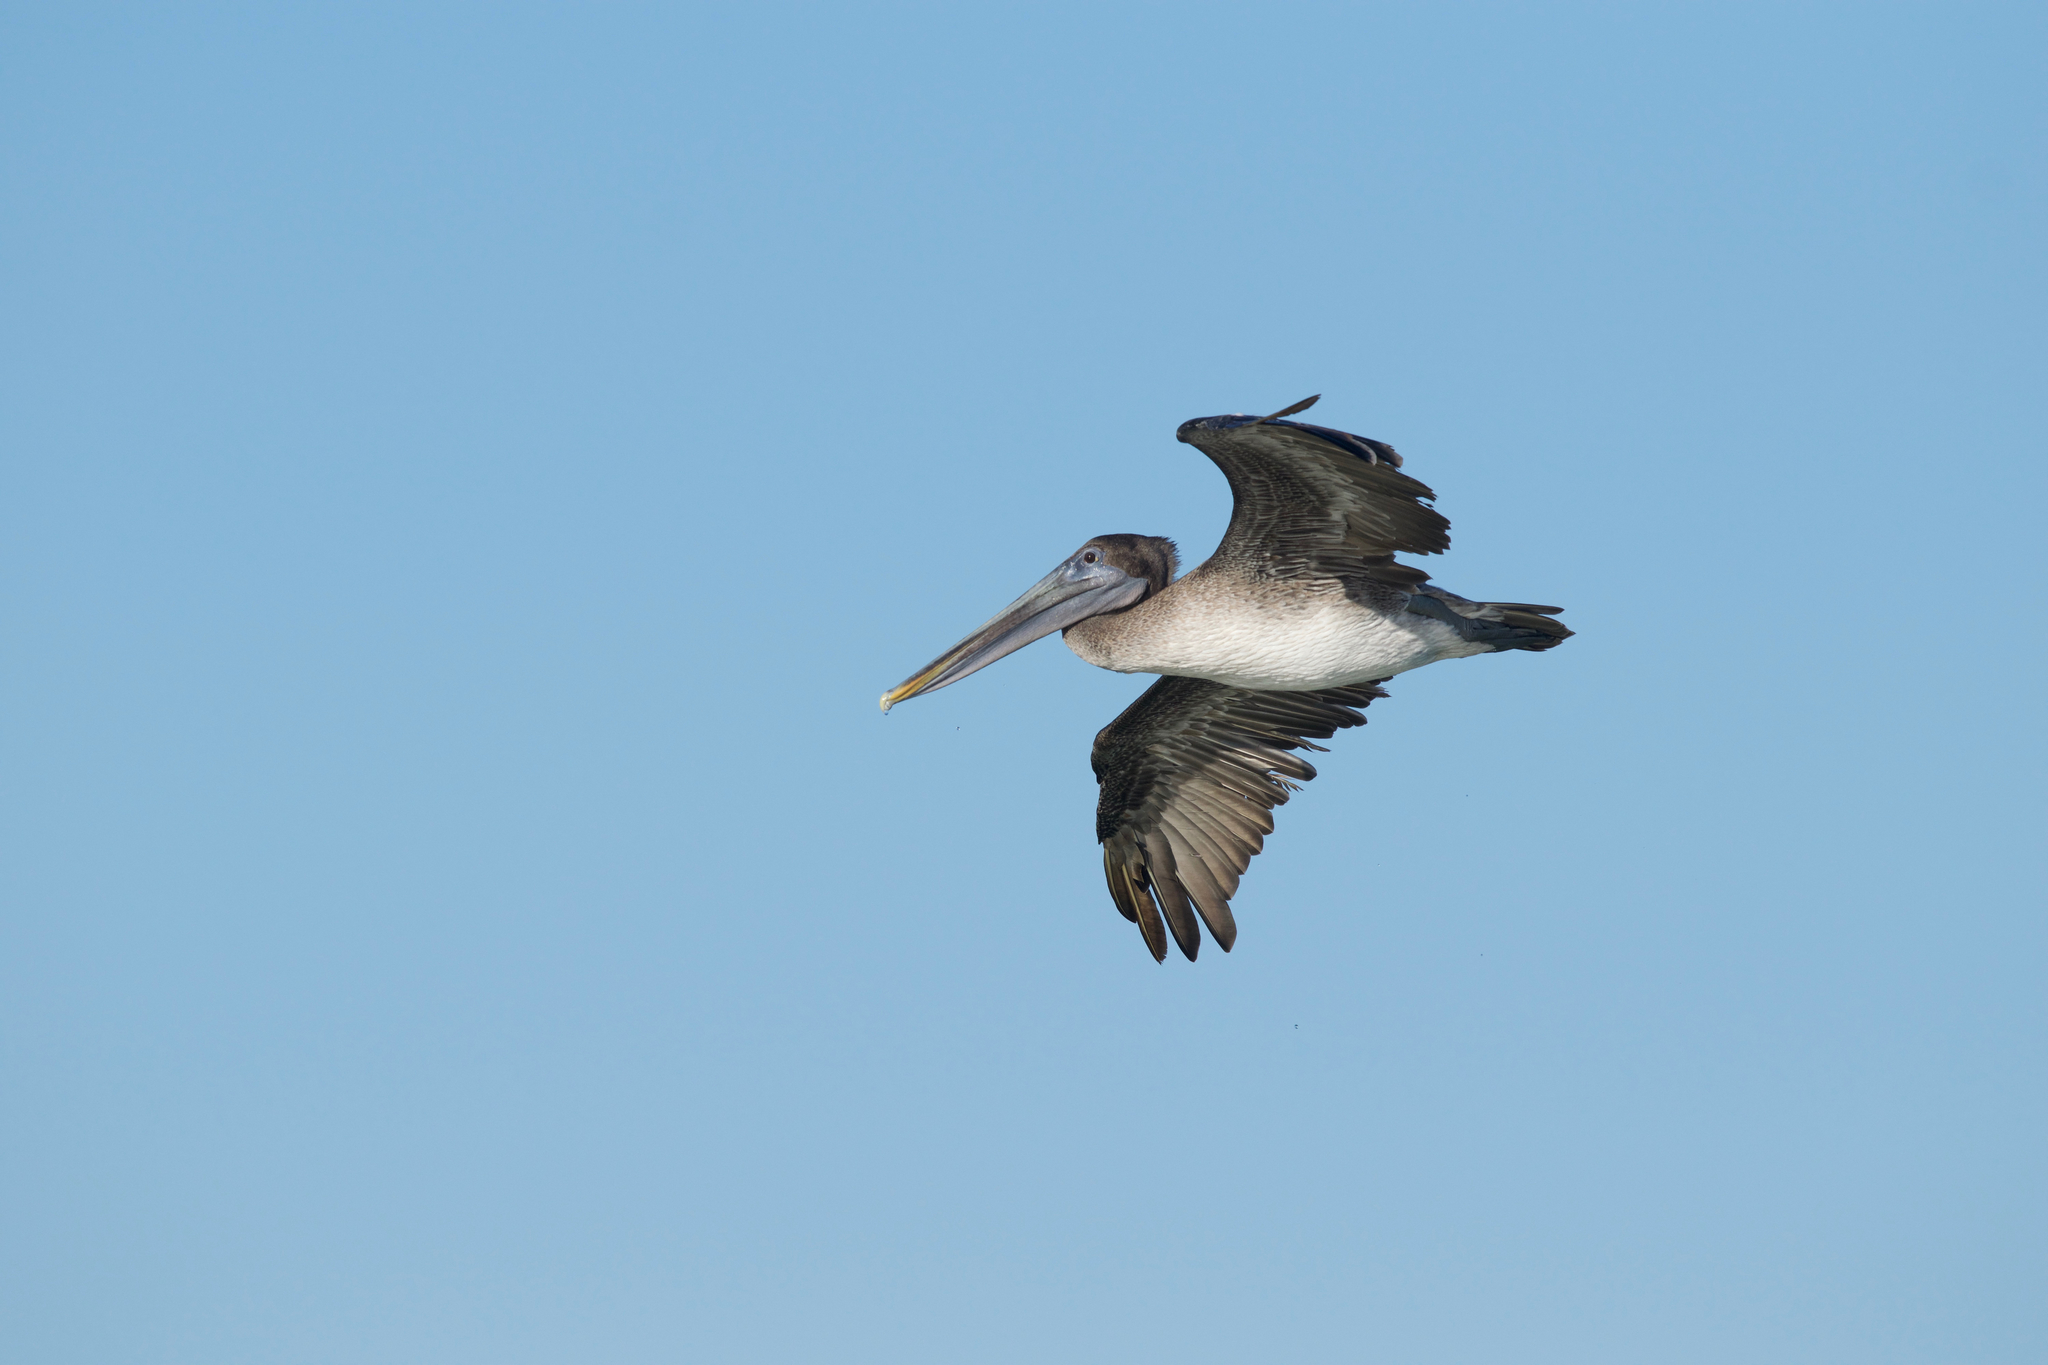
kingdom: Animalia
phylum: Chordata
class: Aves
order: Pelecaniformes
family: Pelecanidae
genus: Pelecanus
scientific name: Pelecanus occidentalis
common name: Brown pelican
